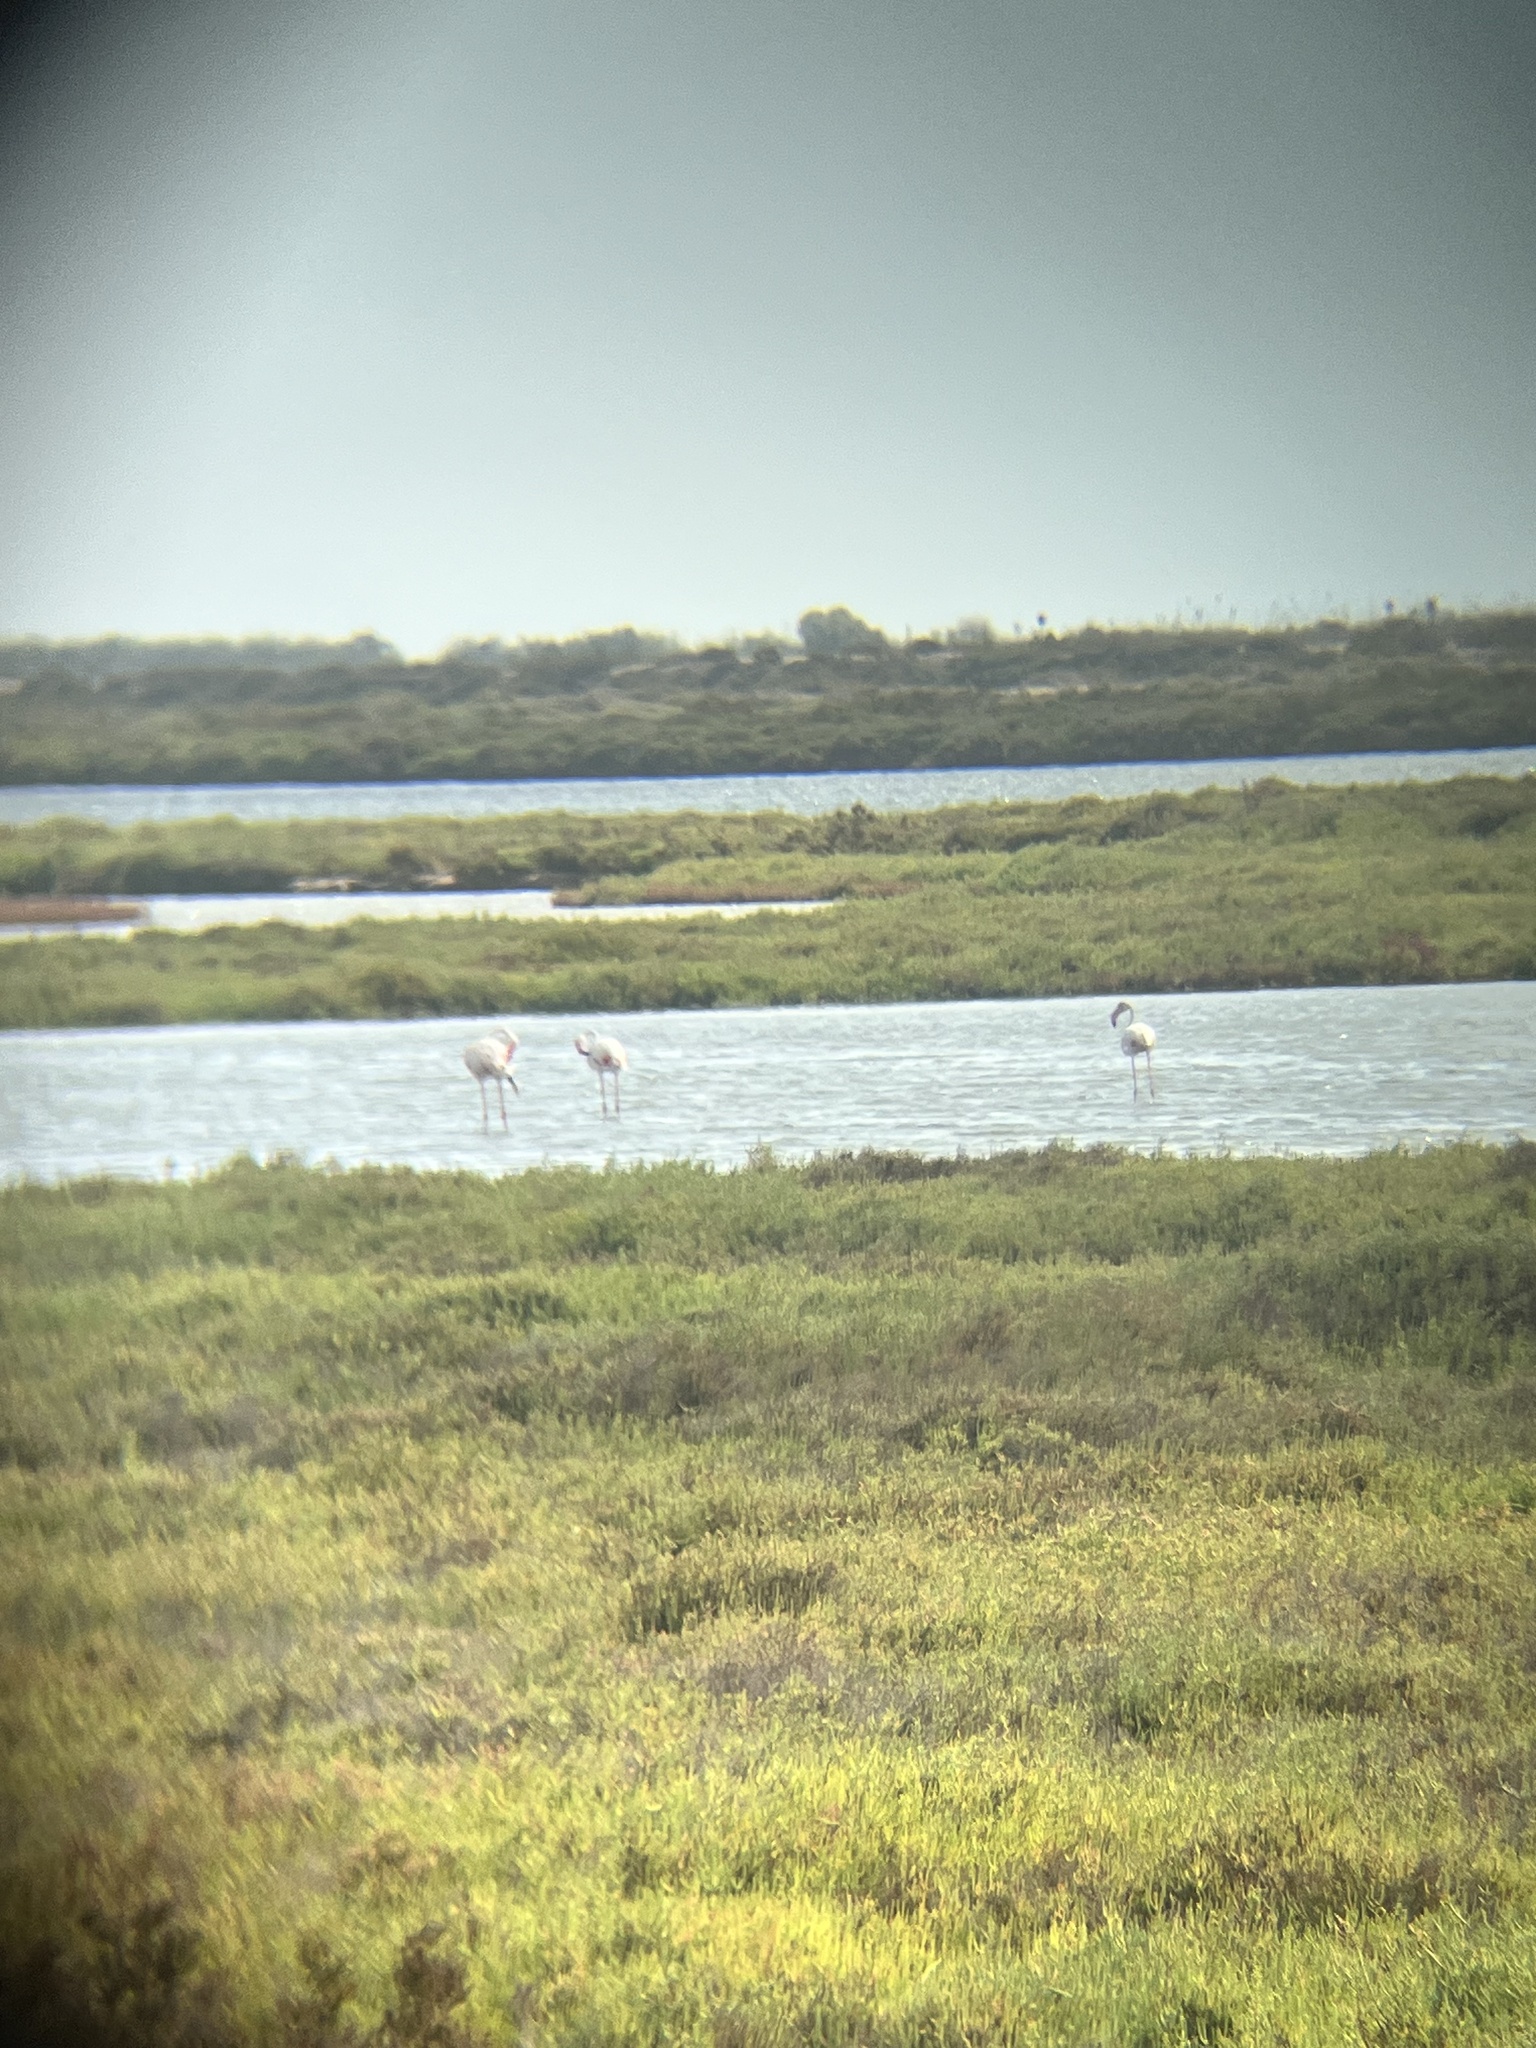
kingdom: Animalia
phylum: Chordata
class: Aves
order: Phoenicopteriformes
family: Phoenicopteridae
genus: Phoenicopterus
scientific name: Phoenicopterus roseus
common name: Greater flamingo
